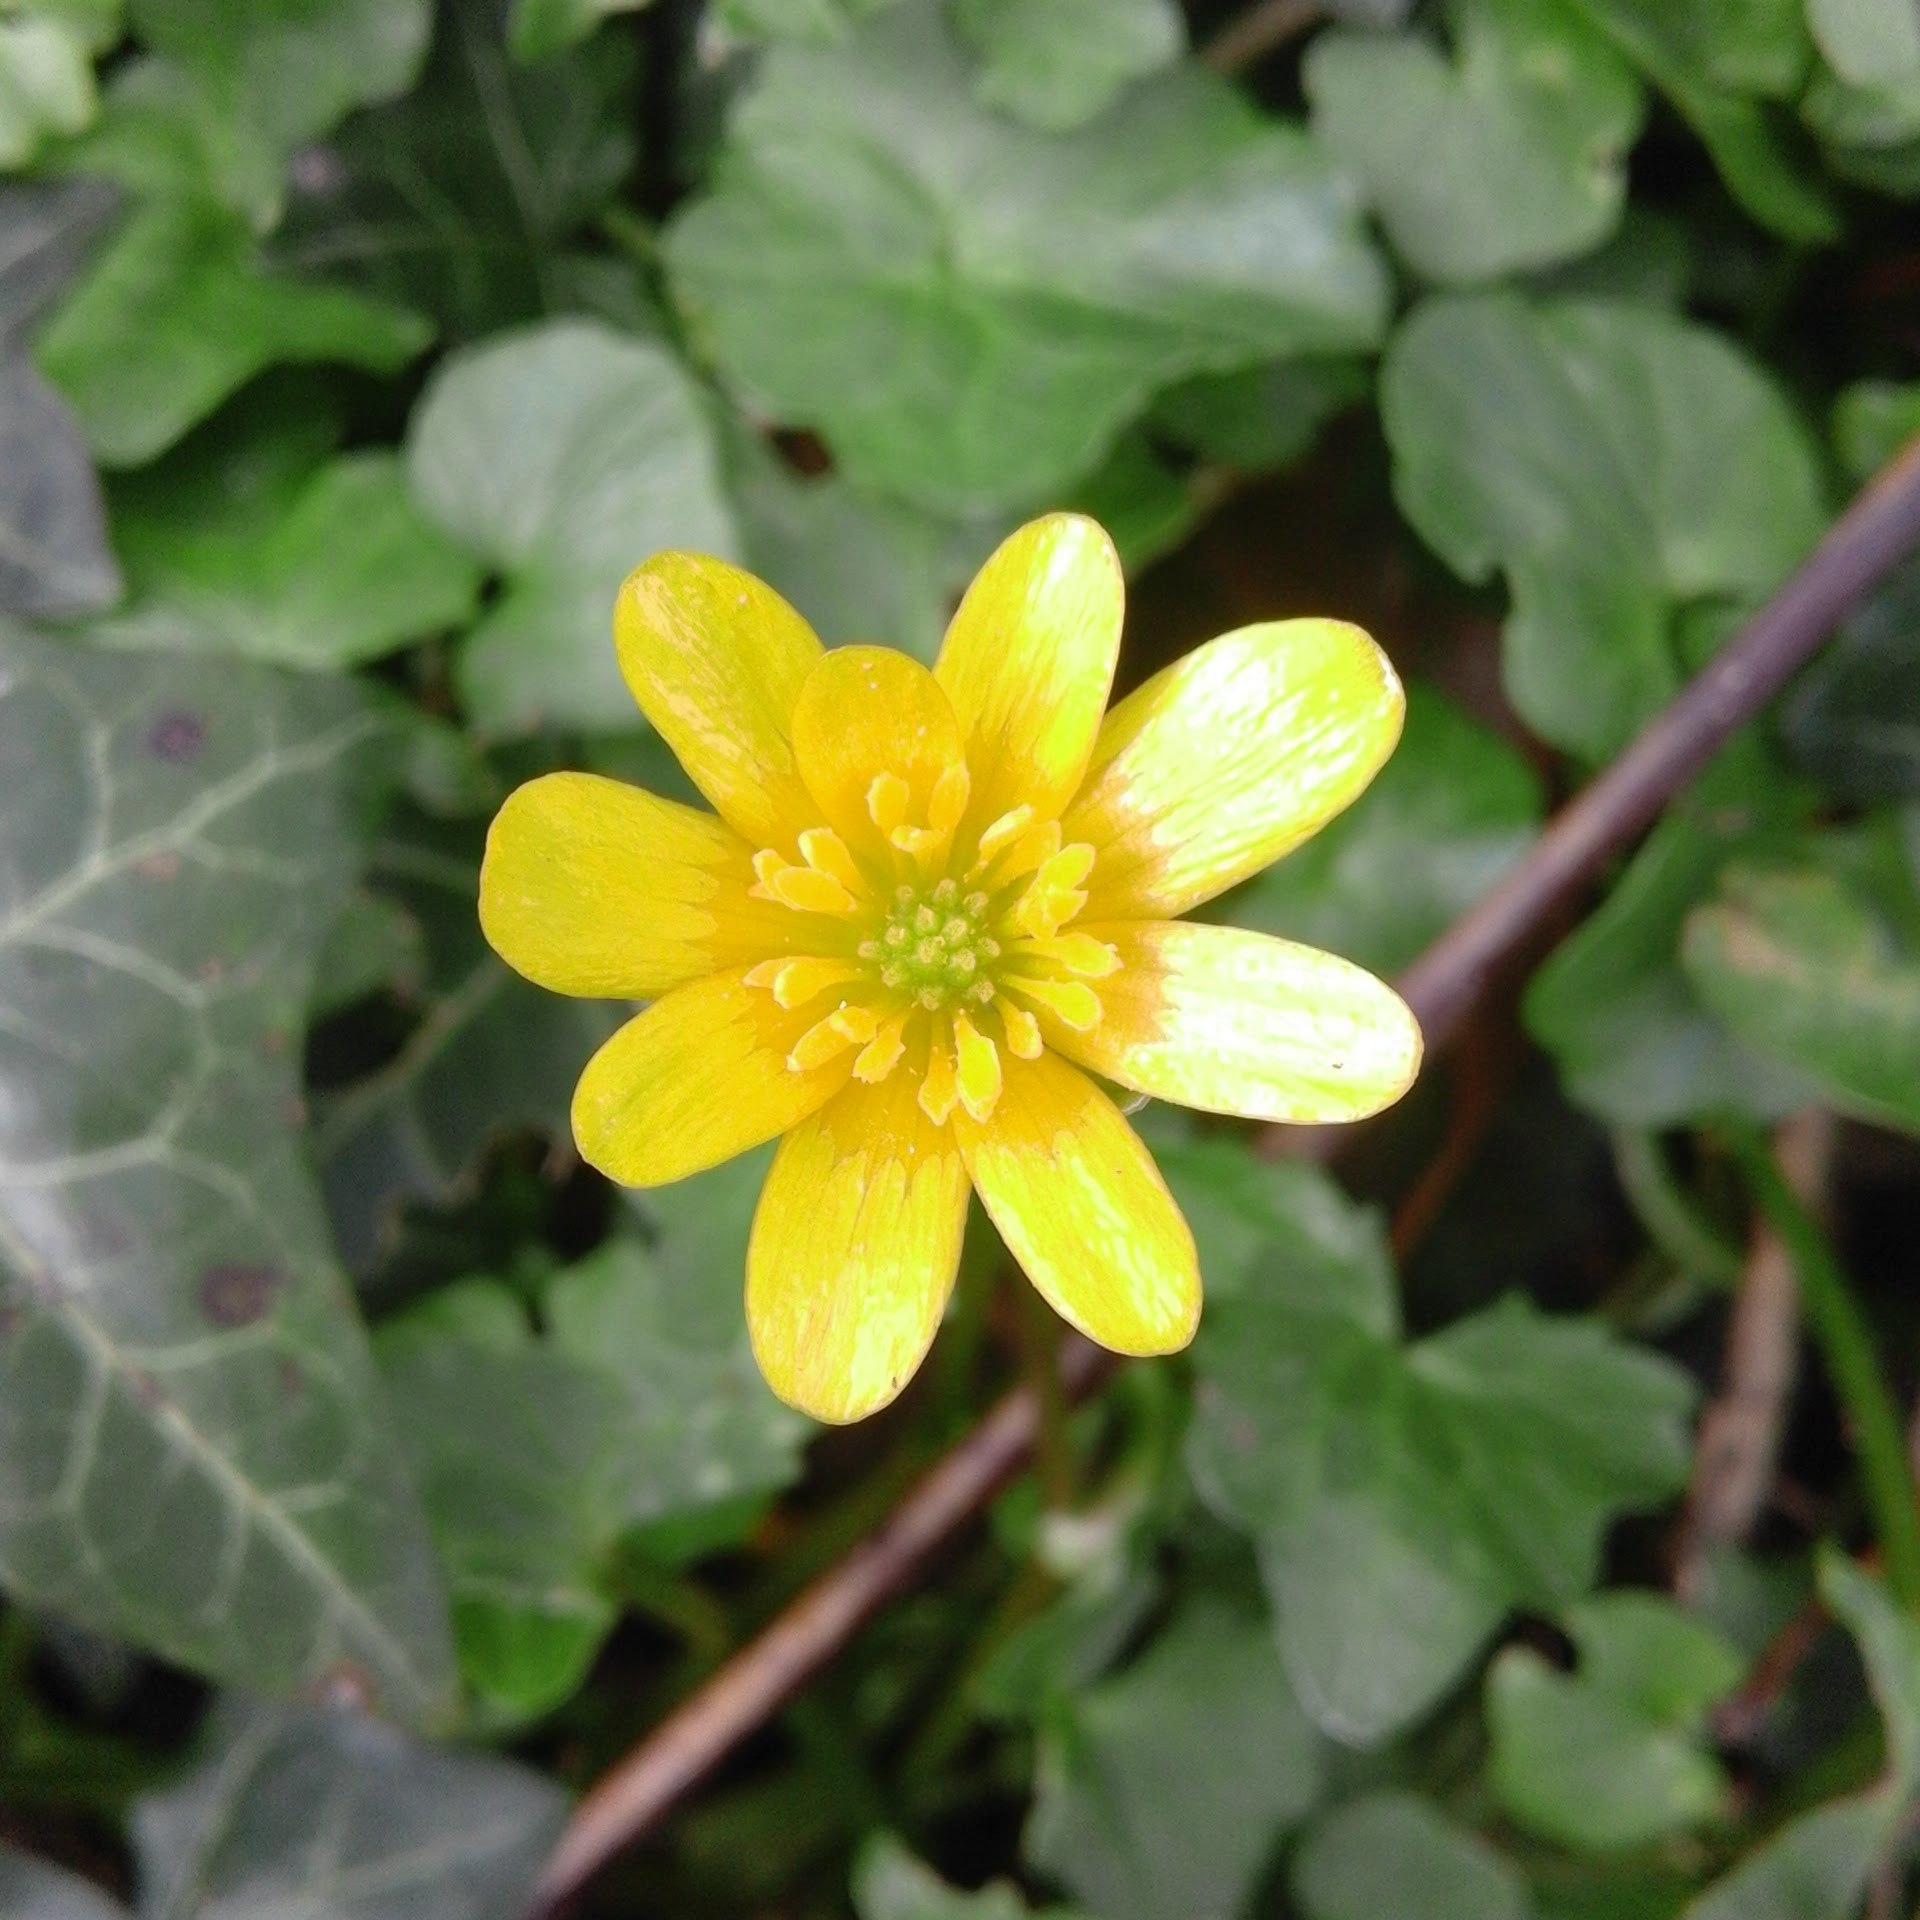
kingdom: Plantae
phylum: Tracheophyta
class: Magnoliopsida
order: Ranunculales
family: Ranunculaceae
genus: Ficaria
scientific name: Ficaria verna
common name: Lesser celandine
